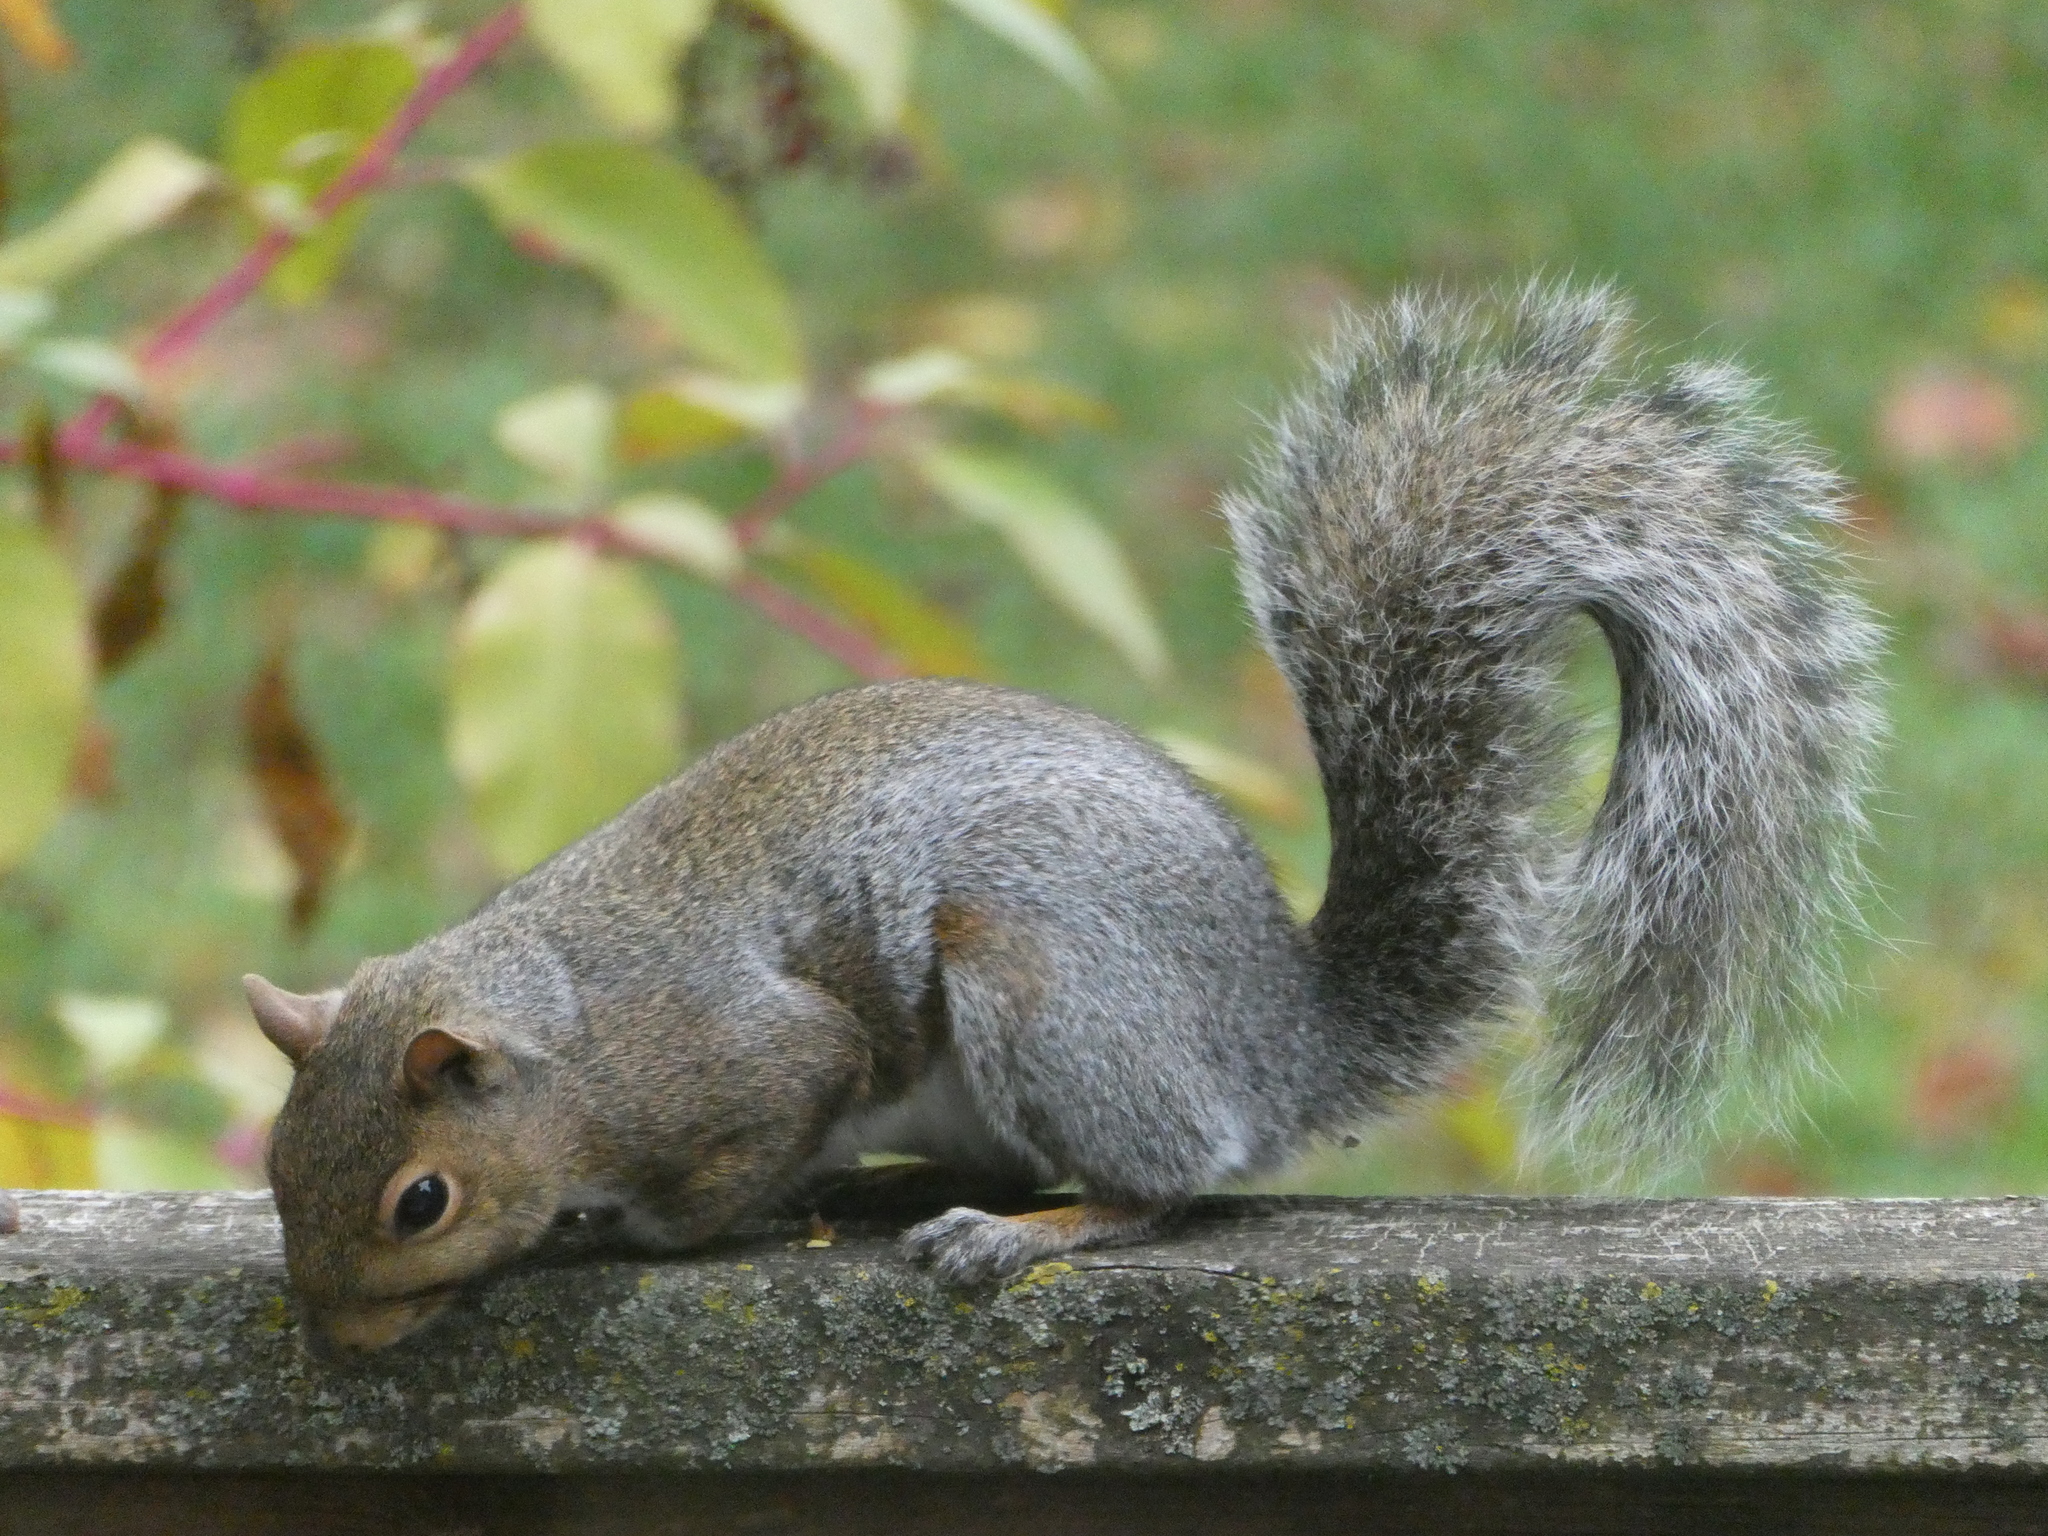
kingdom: Animalia
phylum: Chordata
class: Mammalia
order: Rodentia
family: Sciuridae
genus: Sciurus
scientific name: Sciurus carolinensis
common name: Eastern gray squirrel
